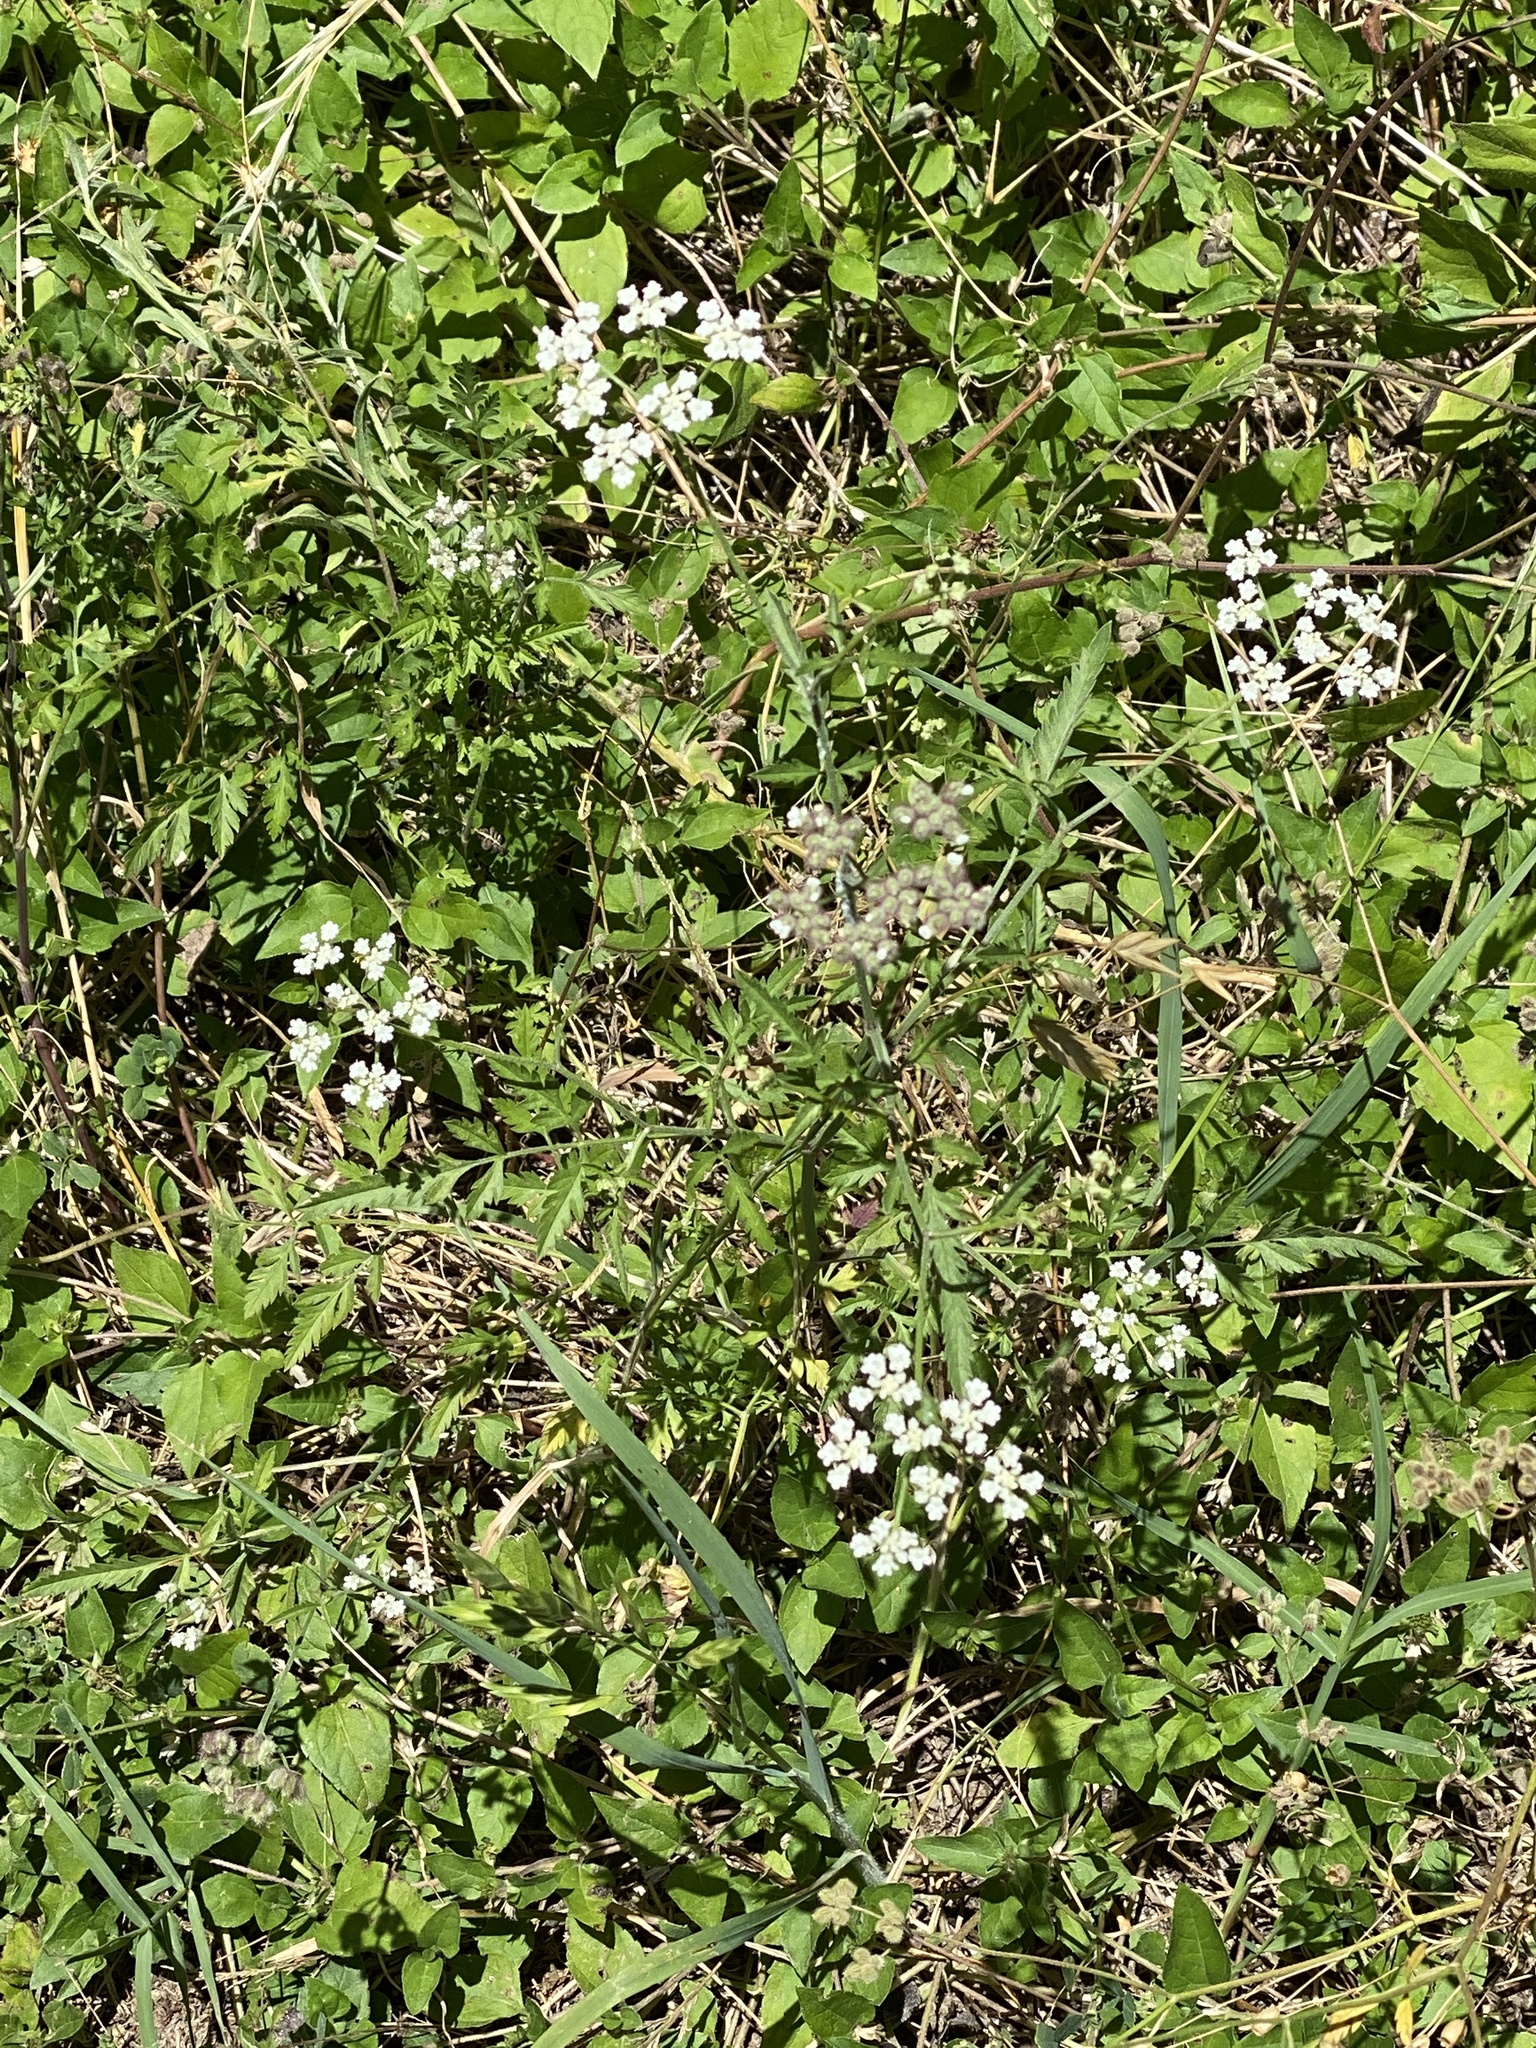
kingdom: Plantae
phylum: Tracheophyta
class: Magnoliopsida
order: Apiales
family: Apiaceae
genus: Torilis
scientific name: Torilis arvensis
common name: Spreading hedge-parsley
